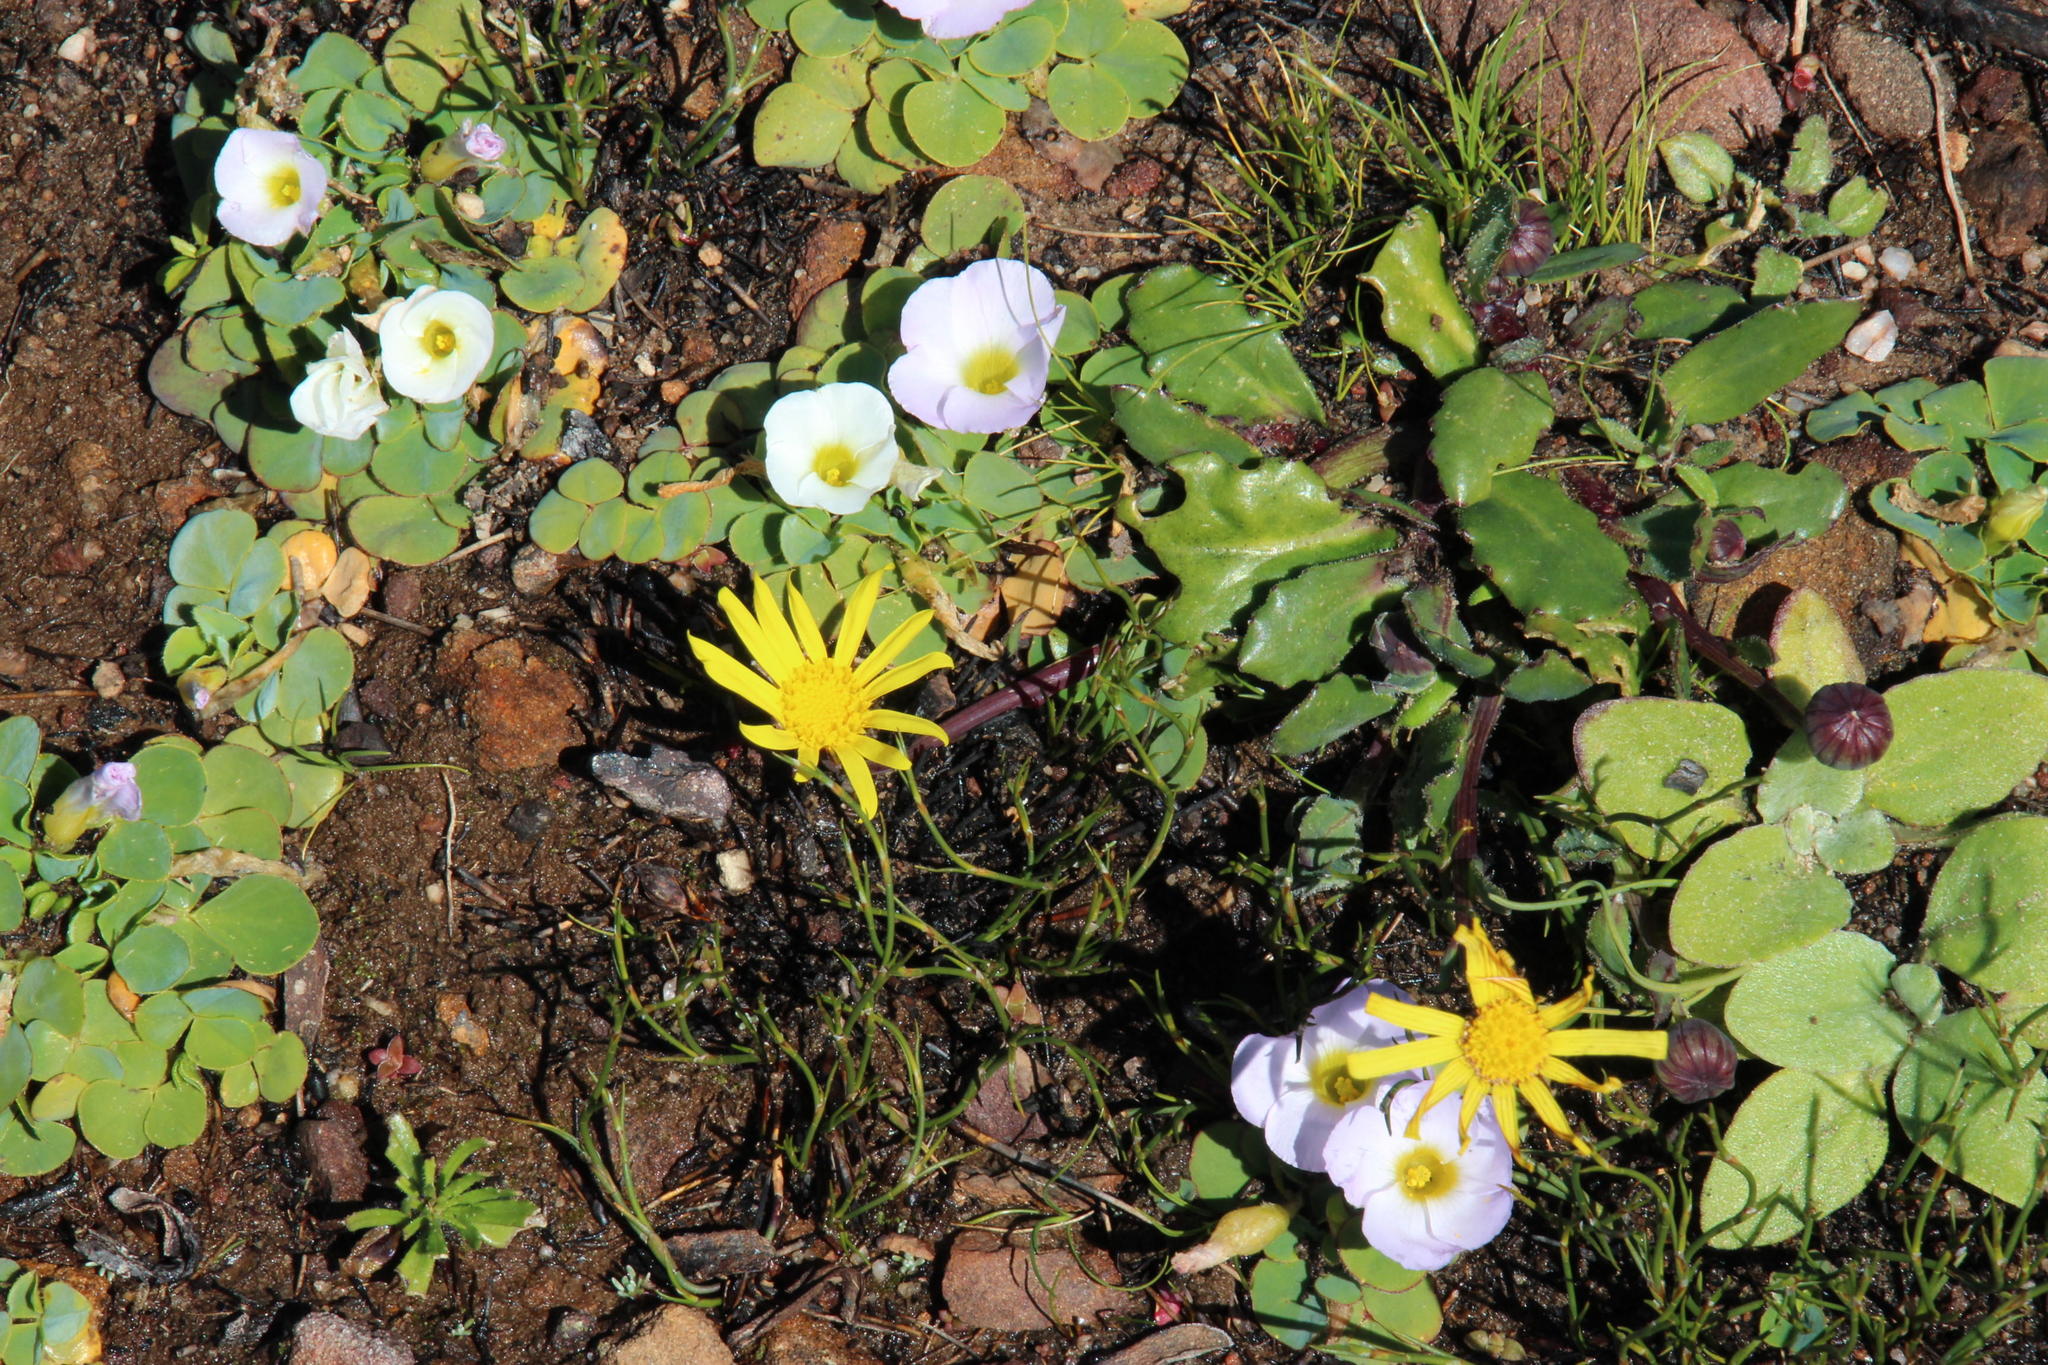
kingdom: Plantae
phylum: Tracheophyta
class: Magnoliopsida
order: Asterales
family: Asteraceae
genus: Othonna
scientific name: Othonna heterophylla
